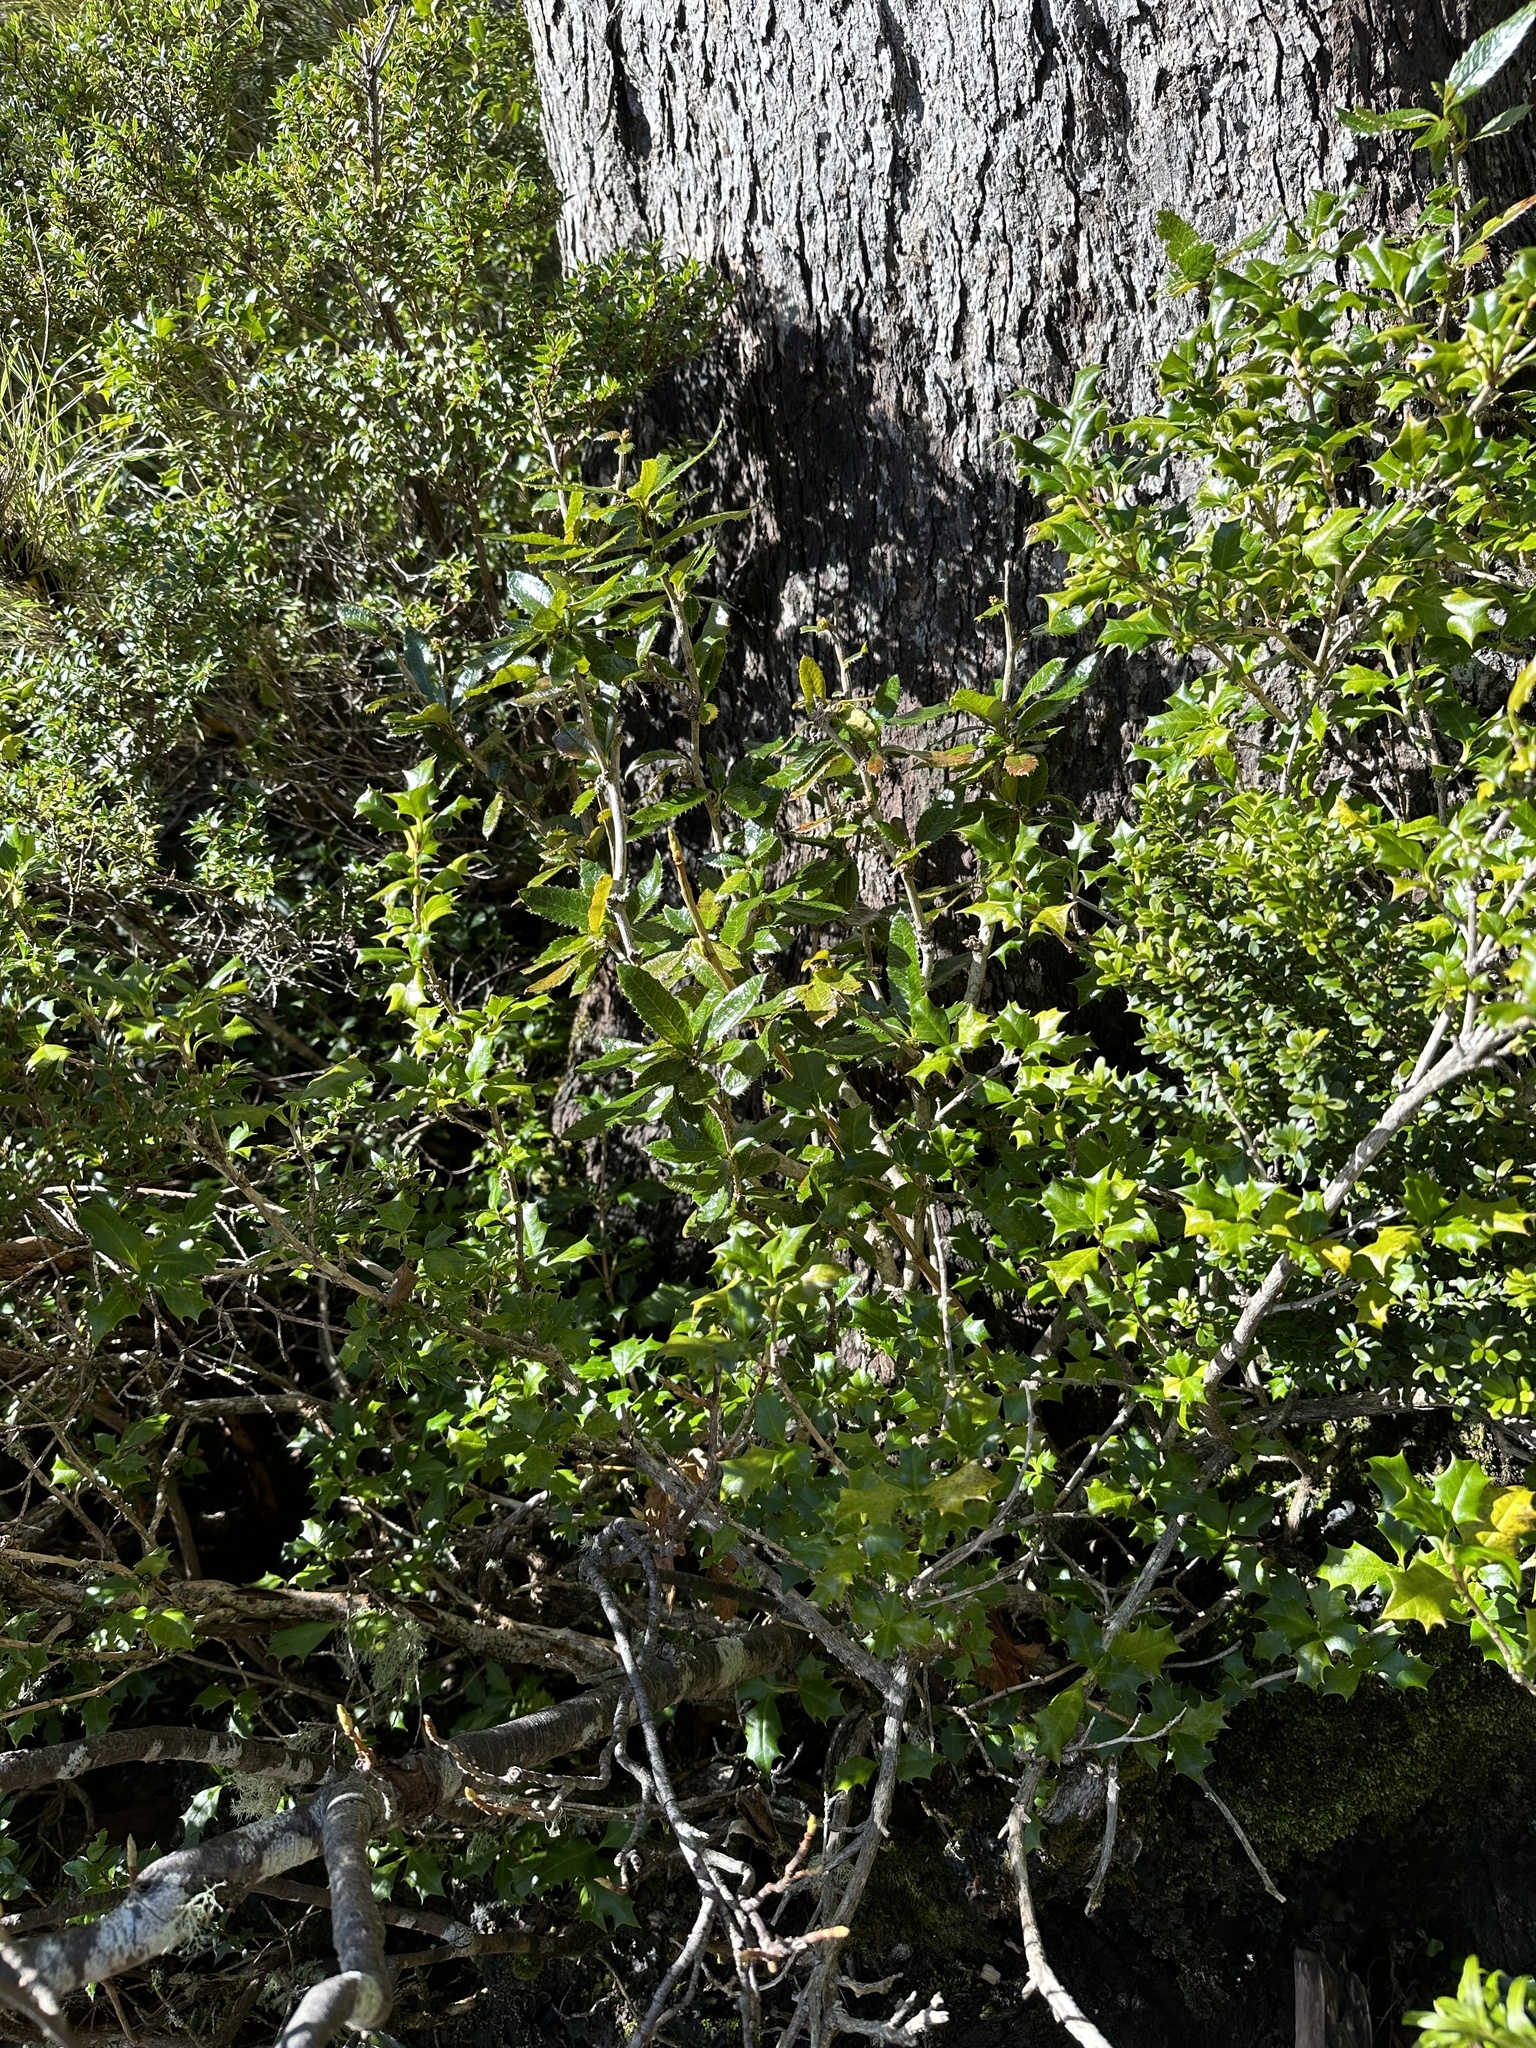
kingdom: Plantae
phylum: Tracheophyta
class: Magnoliopsida
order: Ranunculales
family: Berberidaceae
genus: Berberis
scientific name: Berberis pseudoilicifolia
